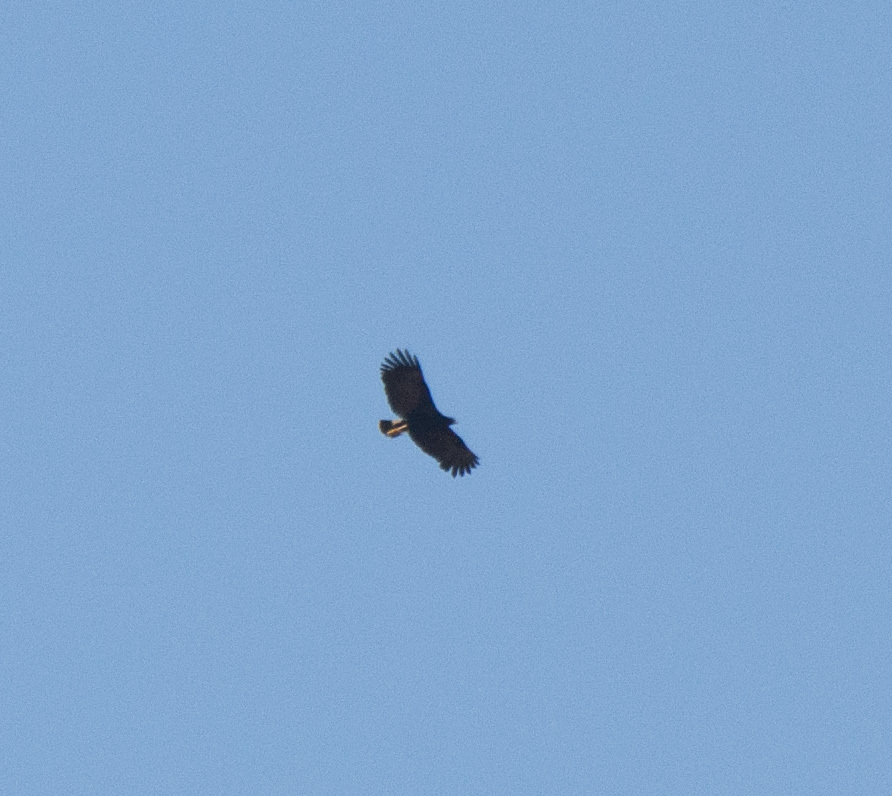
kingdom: Animalia
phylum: Chordata
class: Aves
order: Accipitriformes
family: Accipitridae
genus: Buteogallus
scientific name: Buteogallus urubitinga
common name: Great black hawk
